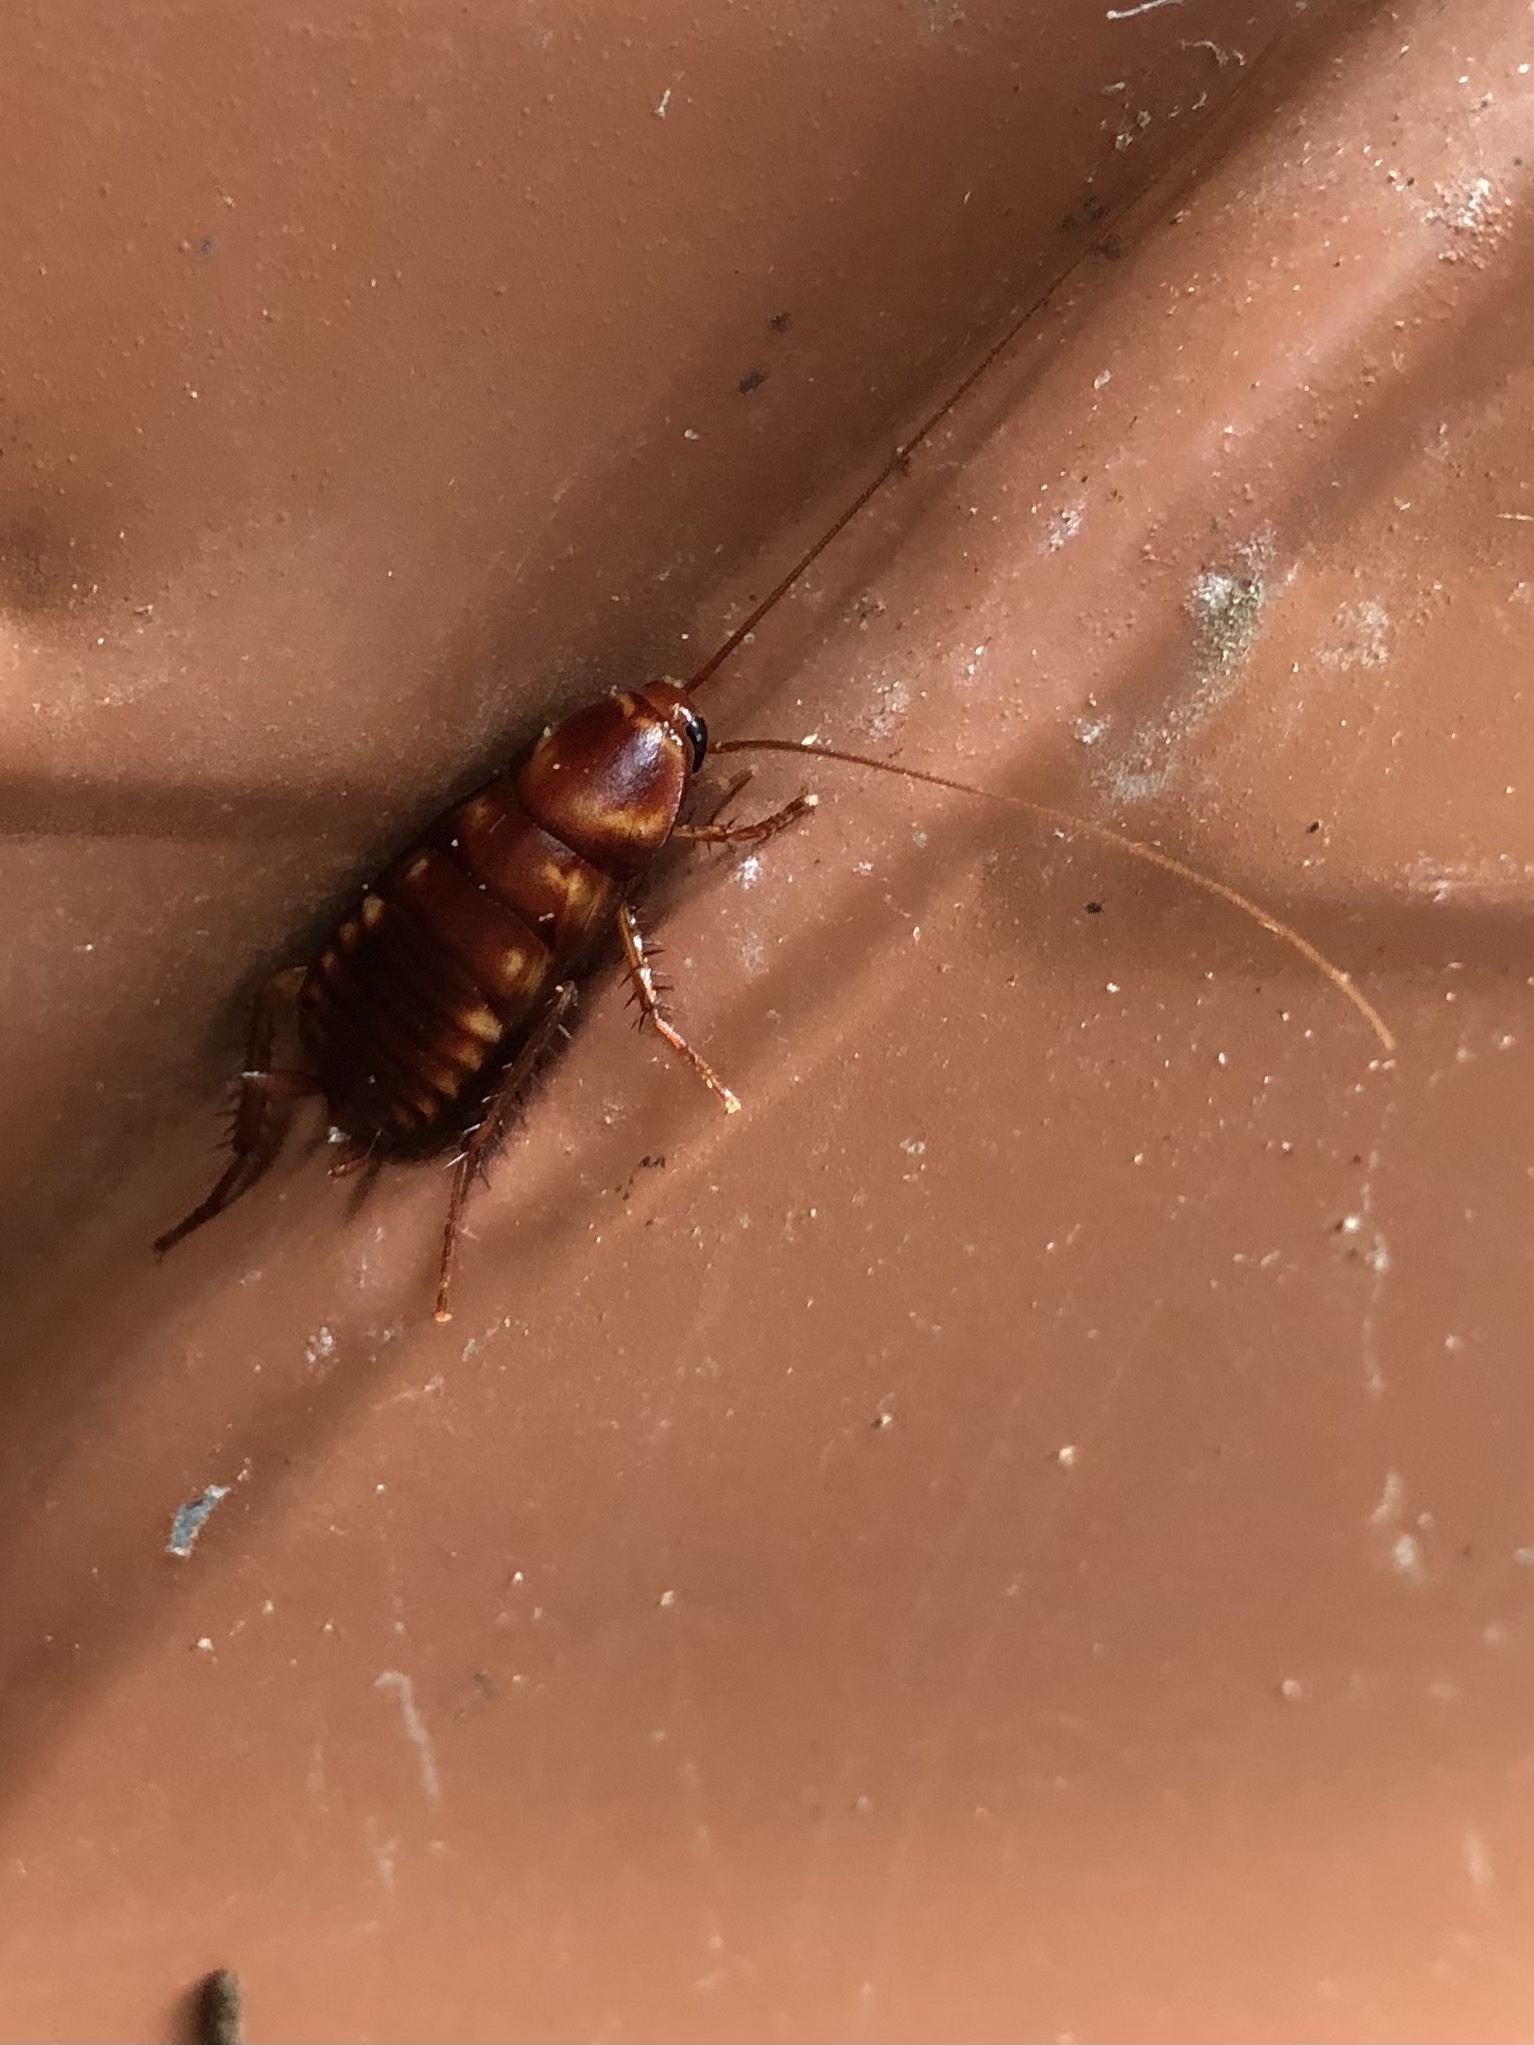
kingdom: Animalia
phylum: Arthropoda
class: Insecta
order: Blattodea
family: Blattidae
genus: Periplaneta
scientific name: Periplaneta australasiae
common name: Australian cockroach
